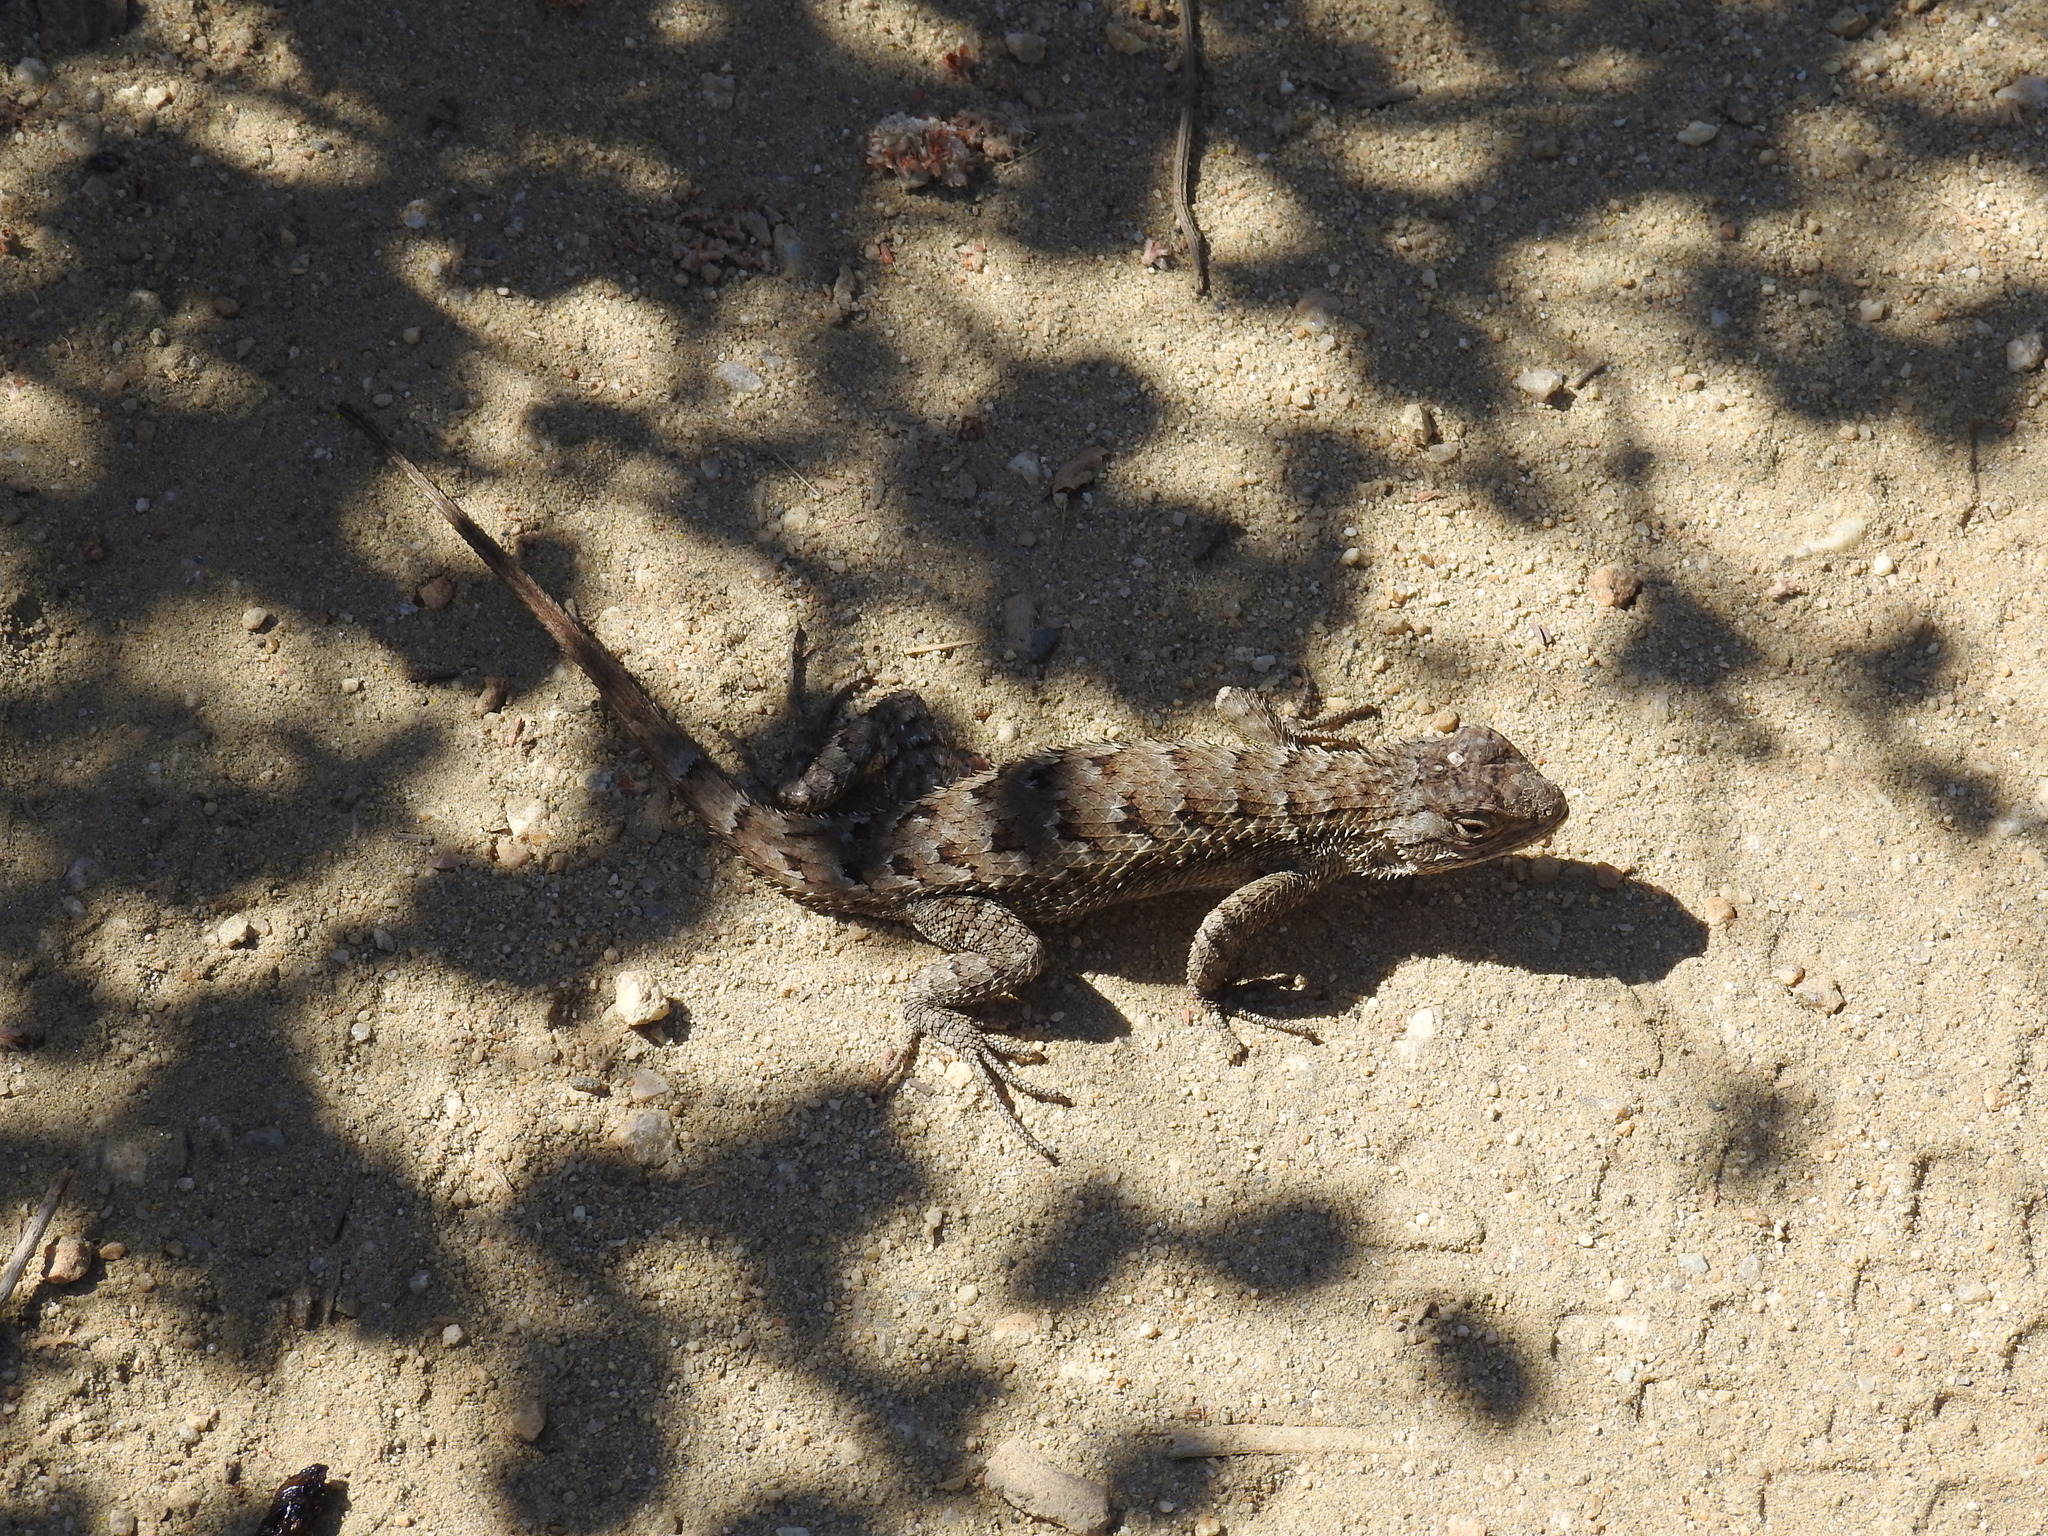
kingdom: Animalia
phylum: Chordata
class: Squamata
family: Phrynosomatidae
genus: Sceloporus
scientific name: Sceloporus occidentalis
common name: Western fence lizard
